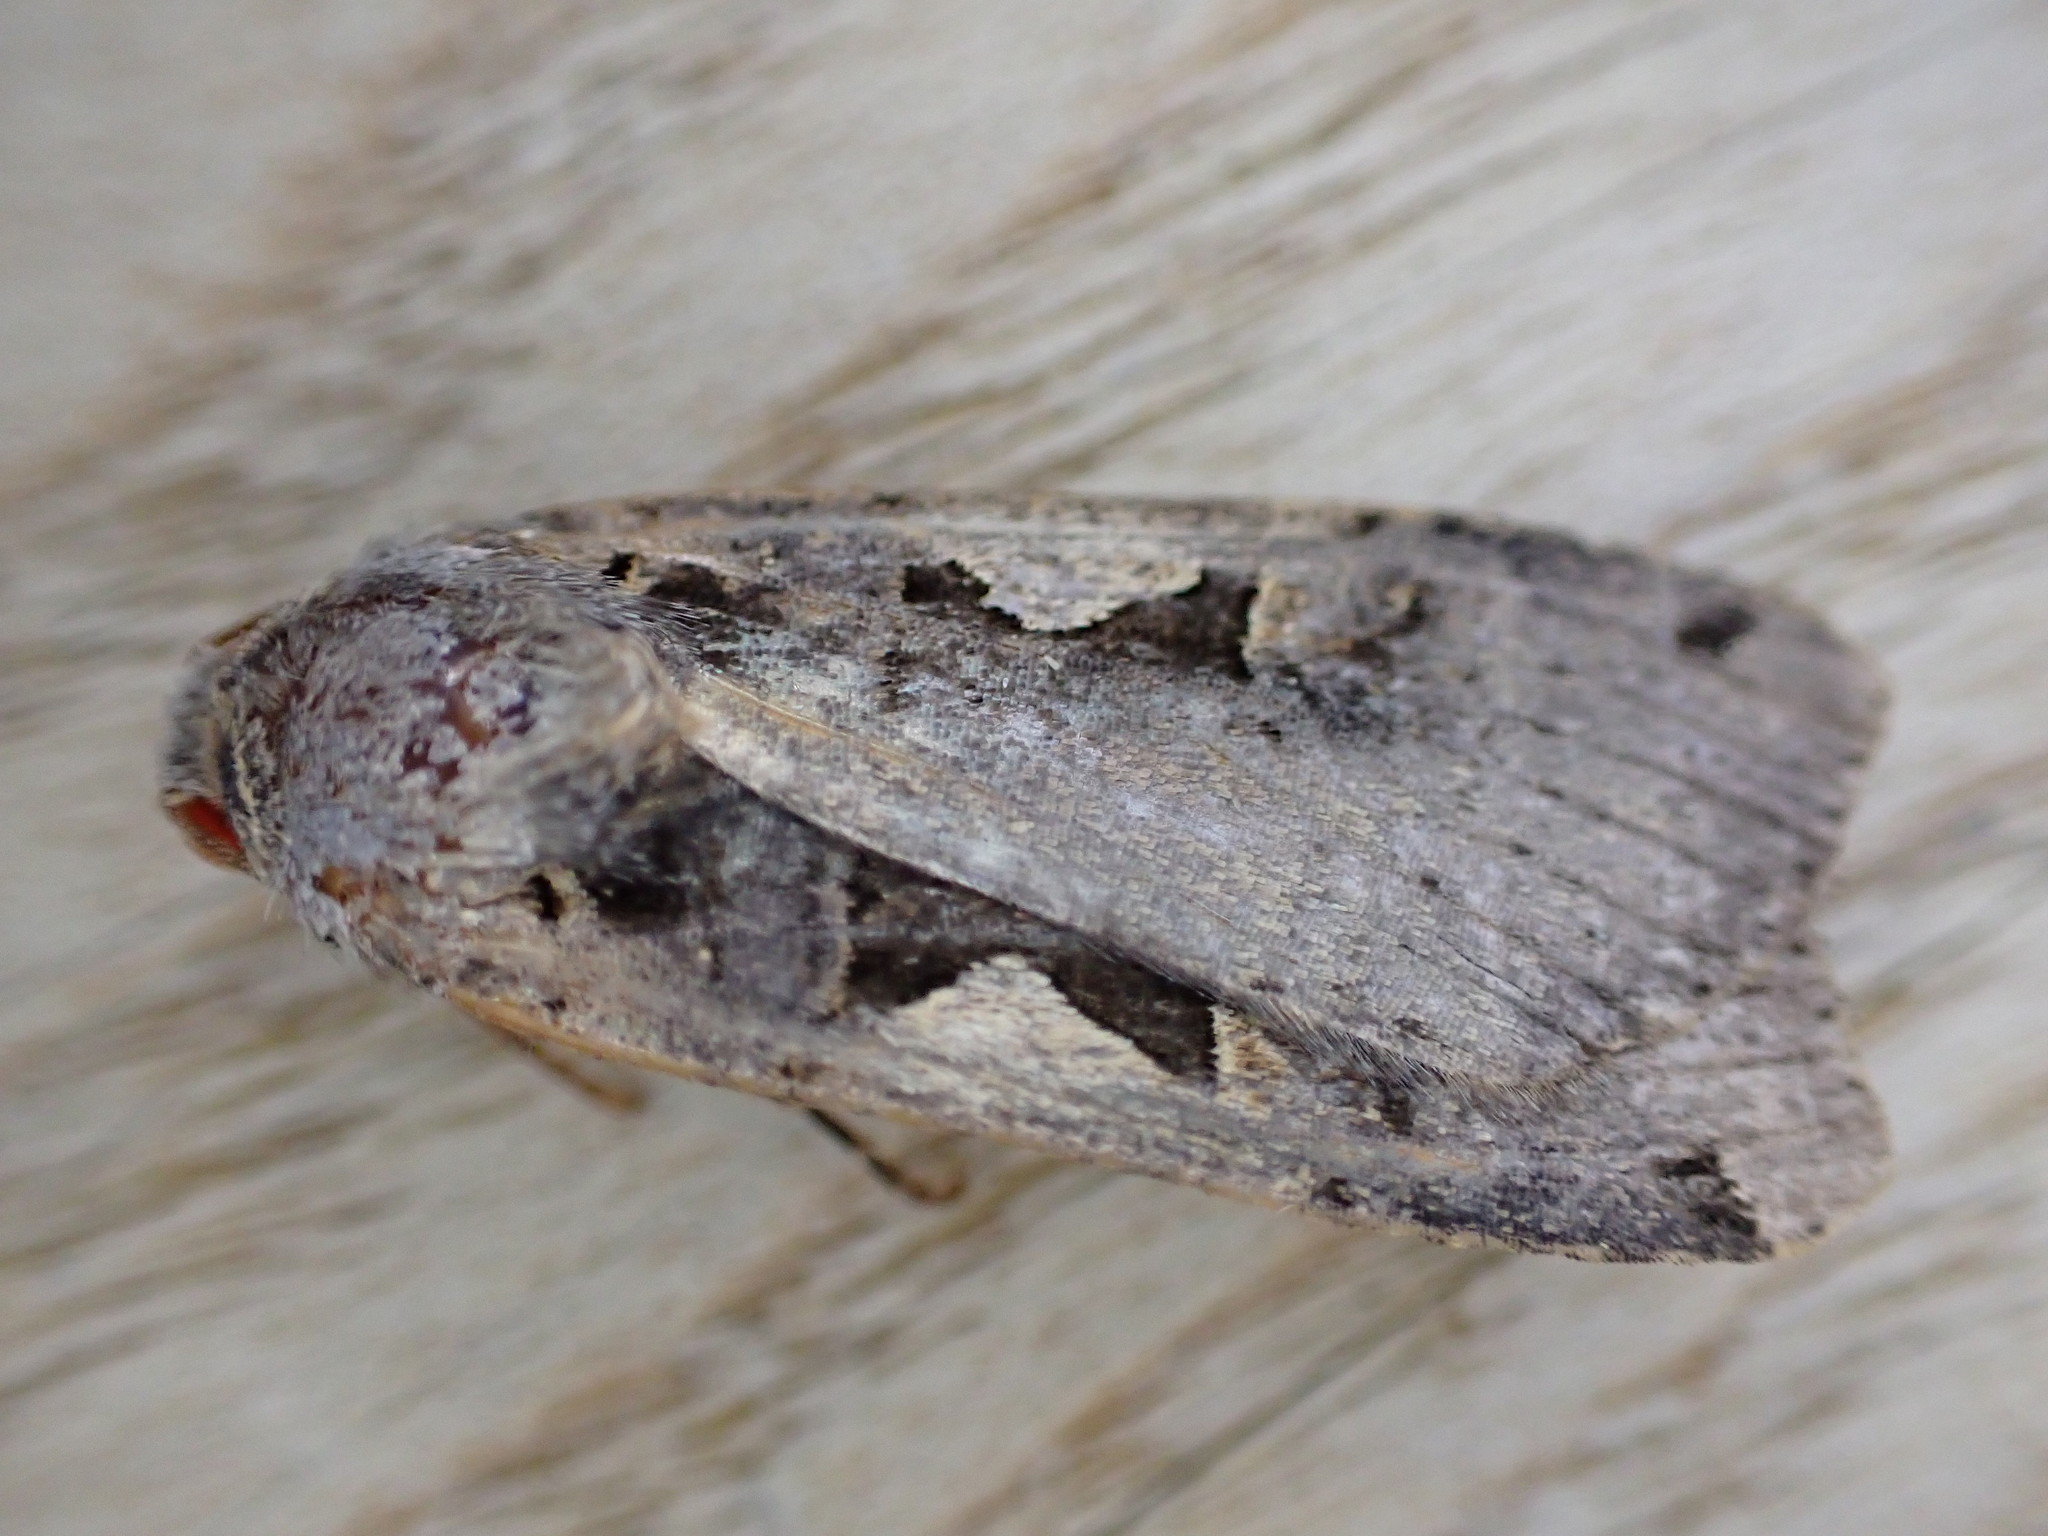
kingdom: Animalia
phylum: Arthropoda
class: Insecta
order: Lepidoptera
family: Noctuidae
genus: Xestia
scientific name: Xestia c-nigrum
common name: Setaceous hebrew character
